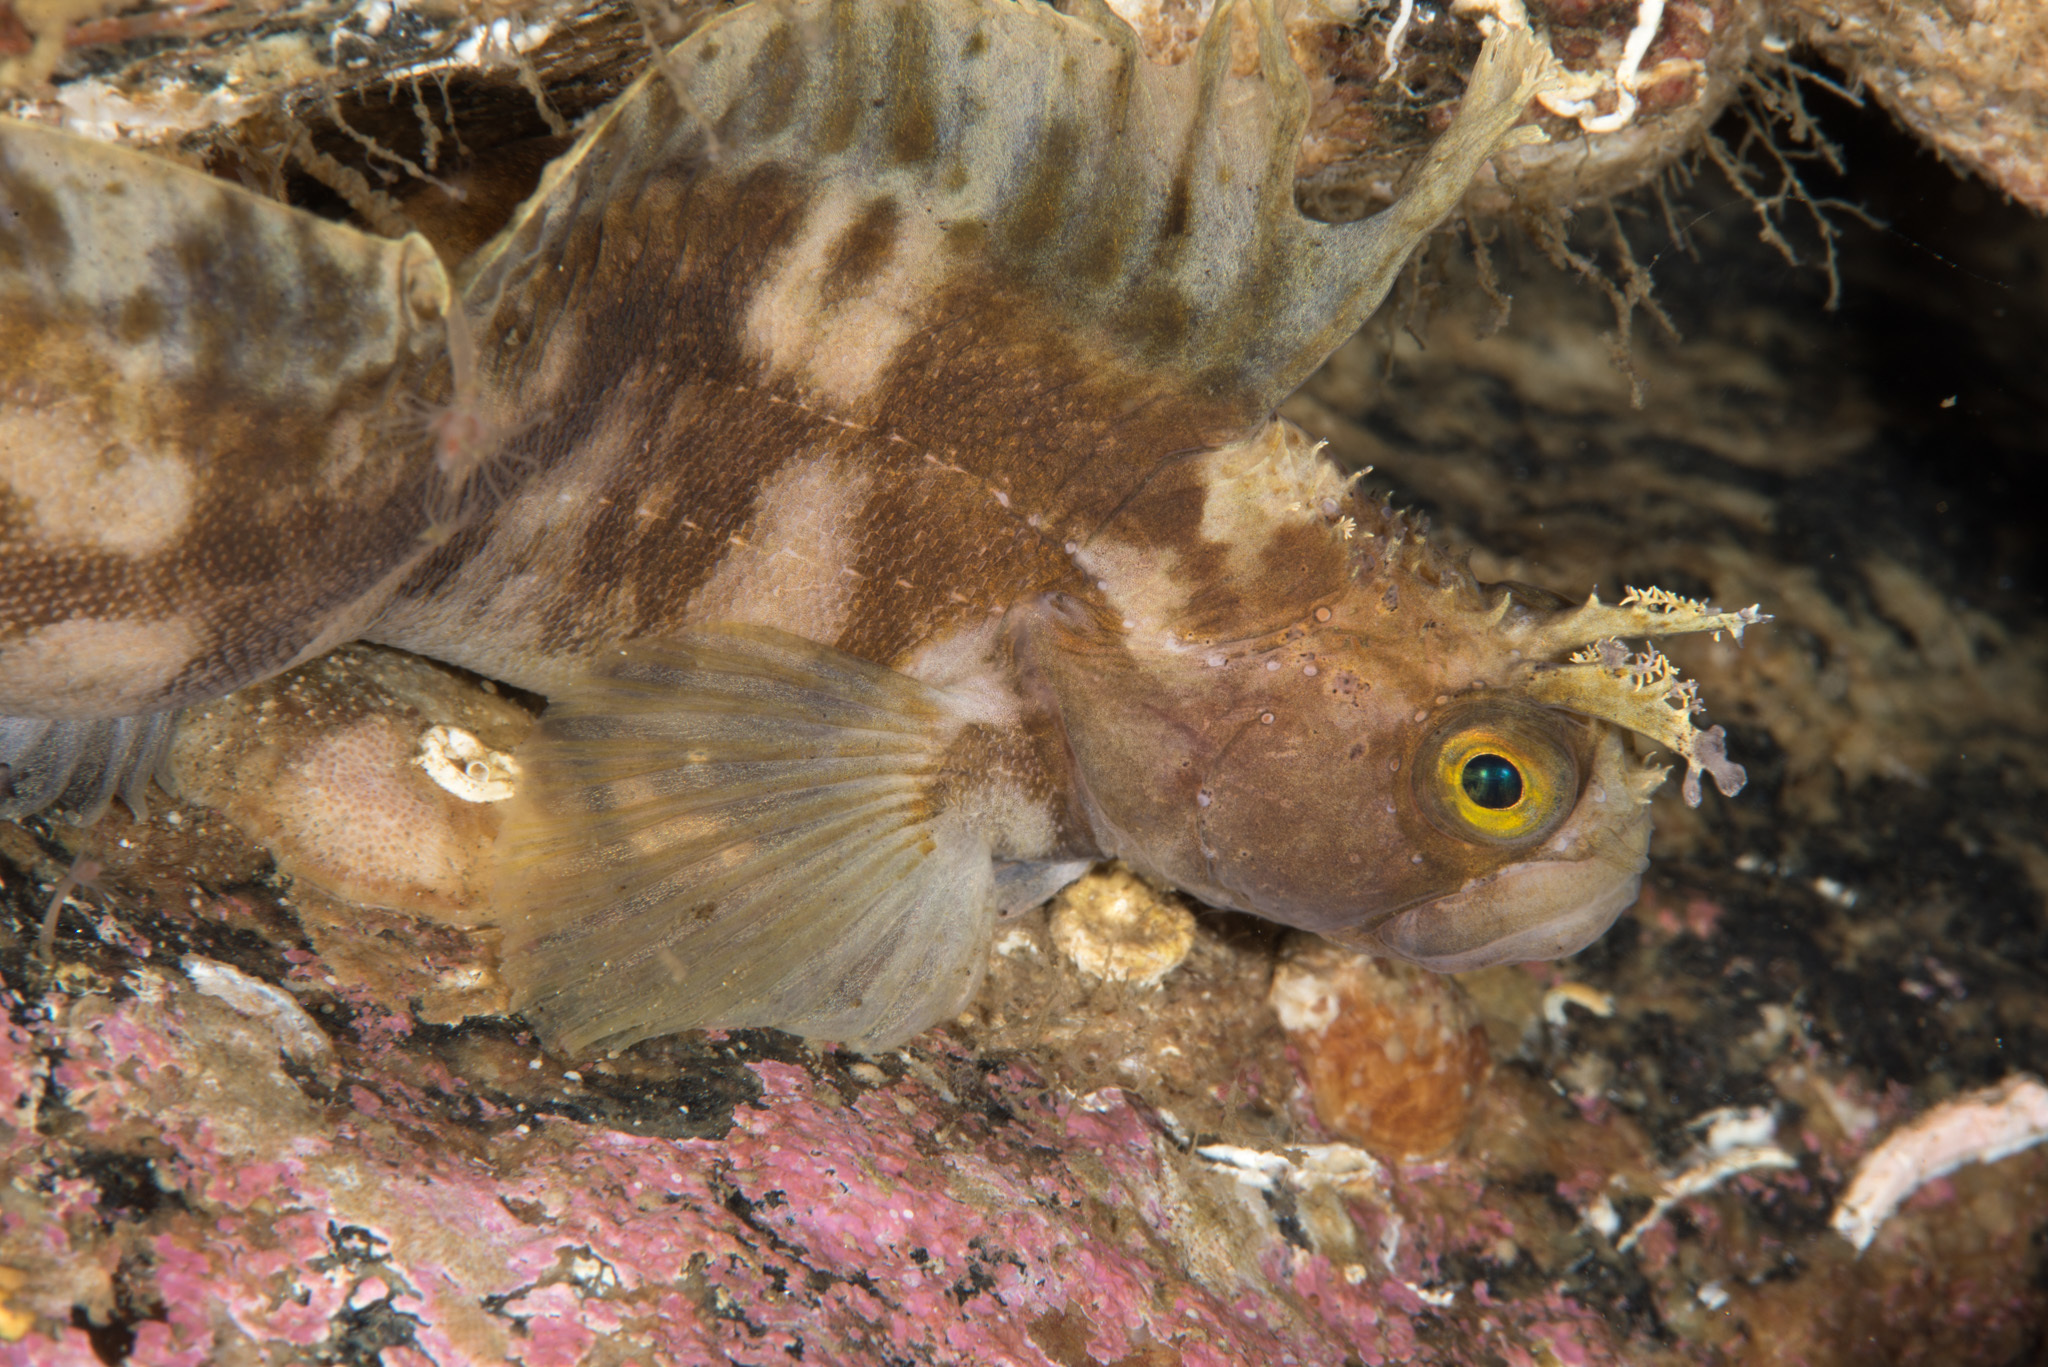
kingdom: Animalia
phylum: Chordata
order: Perciformes
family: Stichaeidae
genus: Chirolophis
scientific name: Chirolophis ascanii
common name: Yarrell's blenny
